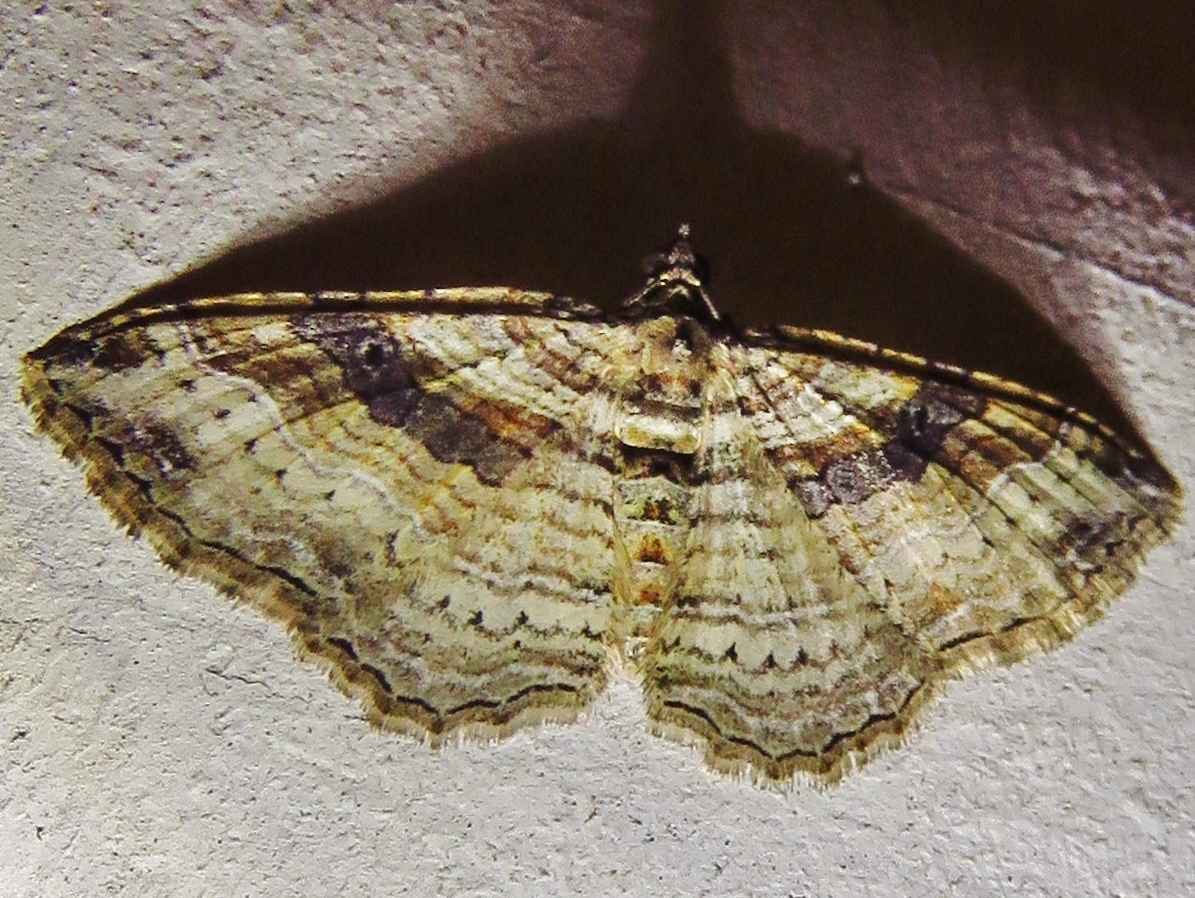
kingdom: Animalia
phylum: Arthropoda
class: Insecta
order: Lepidoptera
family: Geometridae
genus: Costaconvexa
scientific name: Costaconvexa centrostrigaria
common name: Bent-line carpet
